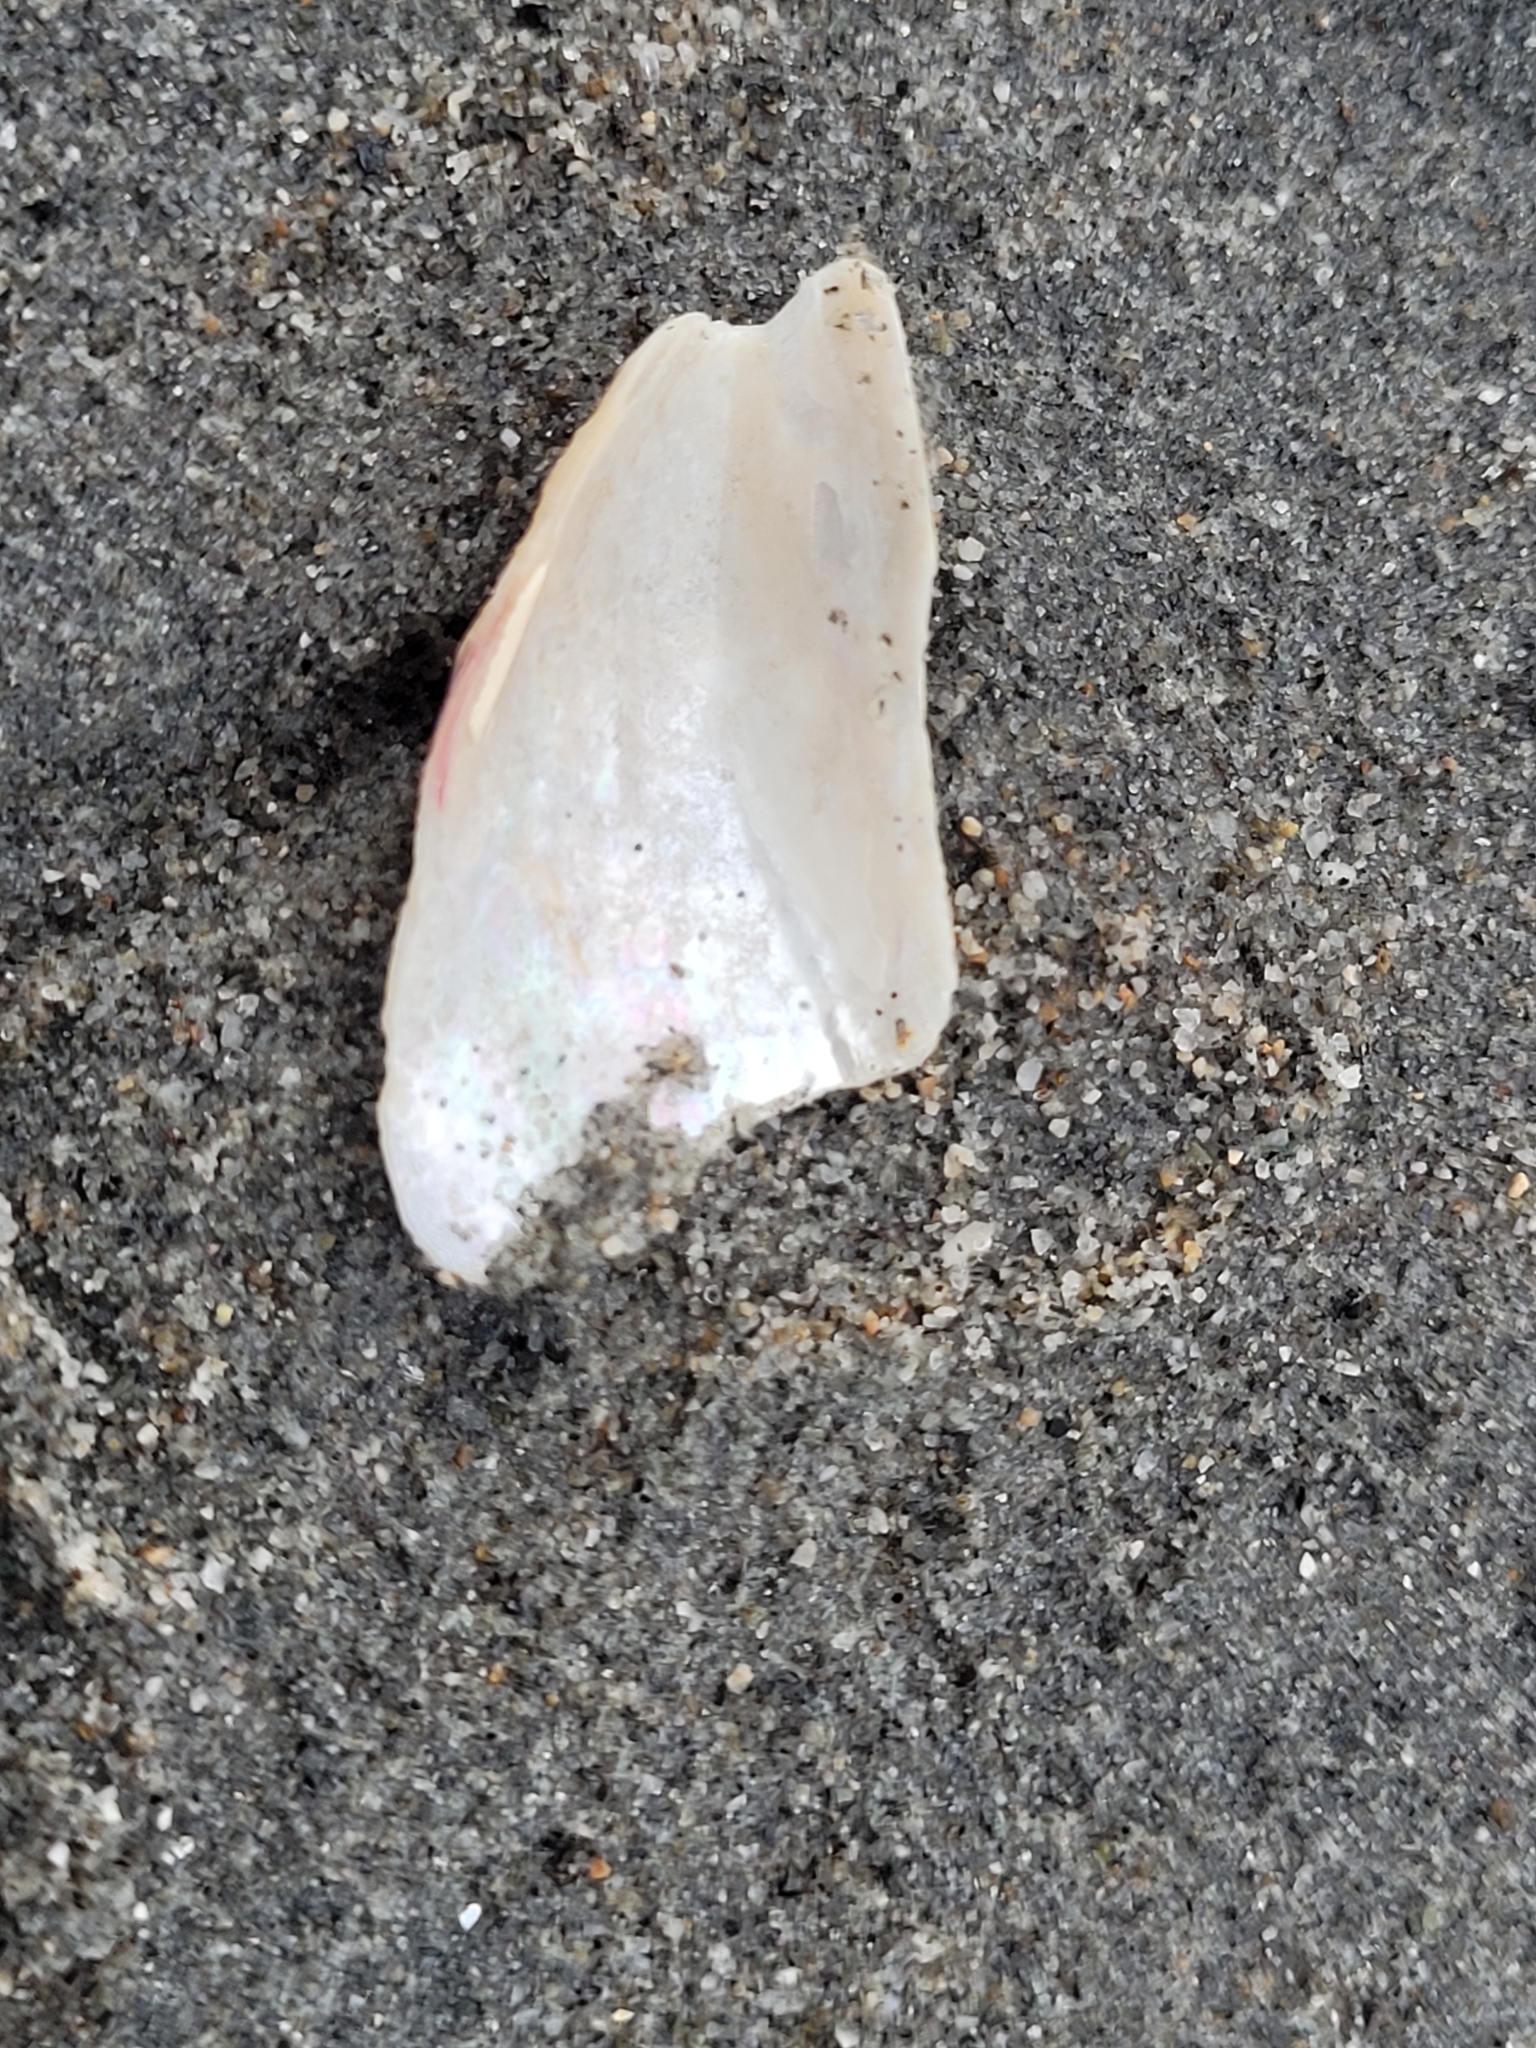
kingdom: Animalia
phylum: Mollusca
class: Bivalvia
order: Mytilida
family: Mytilidae
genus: Aulacomya
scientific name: Aulacomya maoriana
